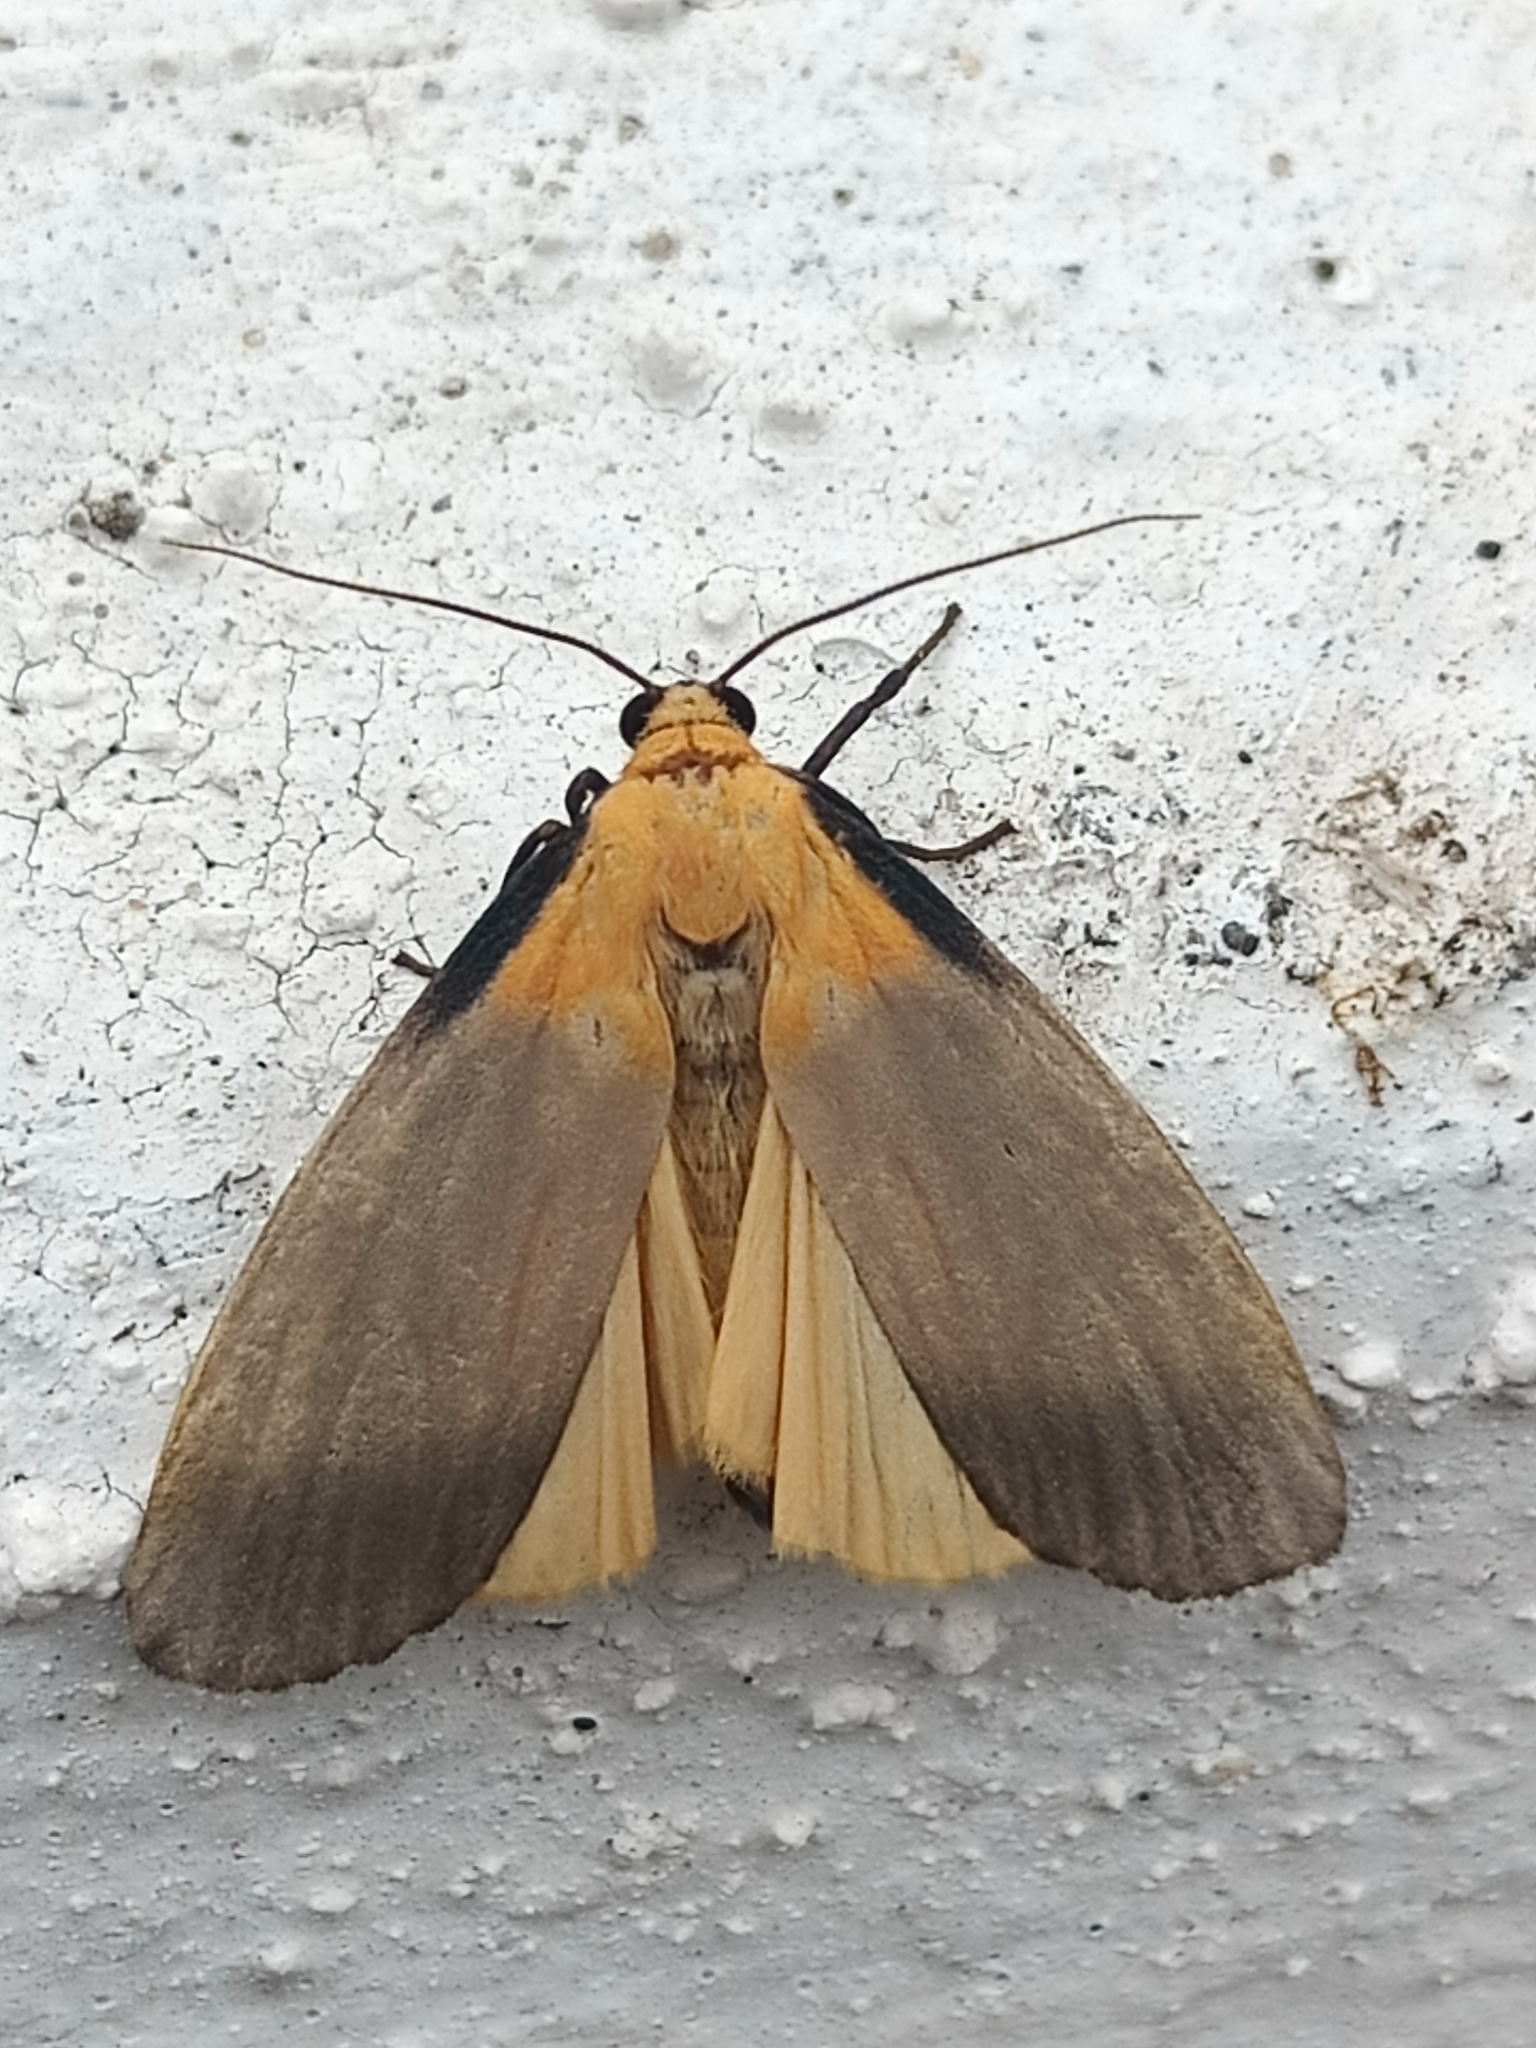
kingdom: Animalia
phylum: Arthropoda
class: Insecta
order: Lepidoptera
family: Erebidae
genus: Lithosia
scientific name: Lithosia quadra
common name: Four-spotted footman
